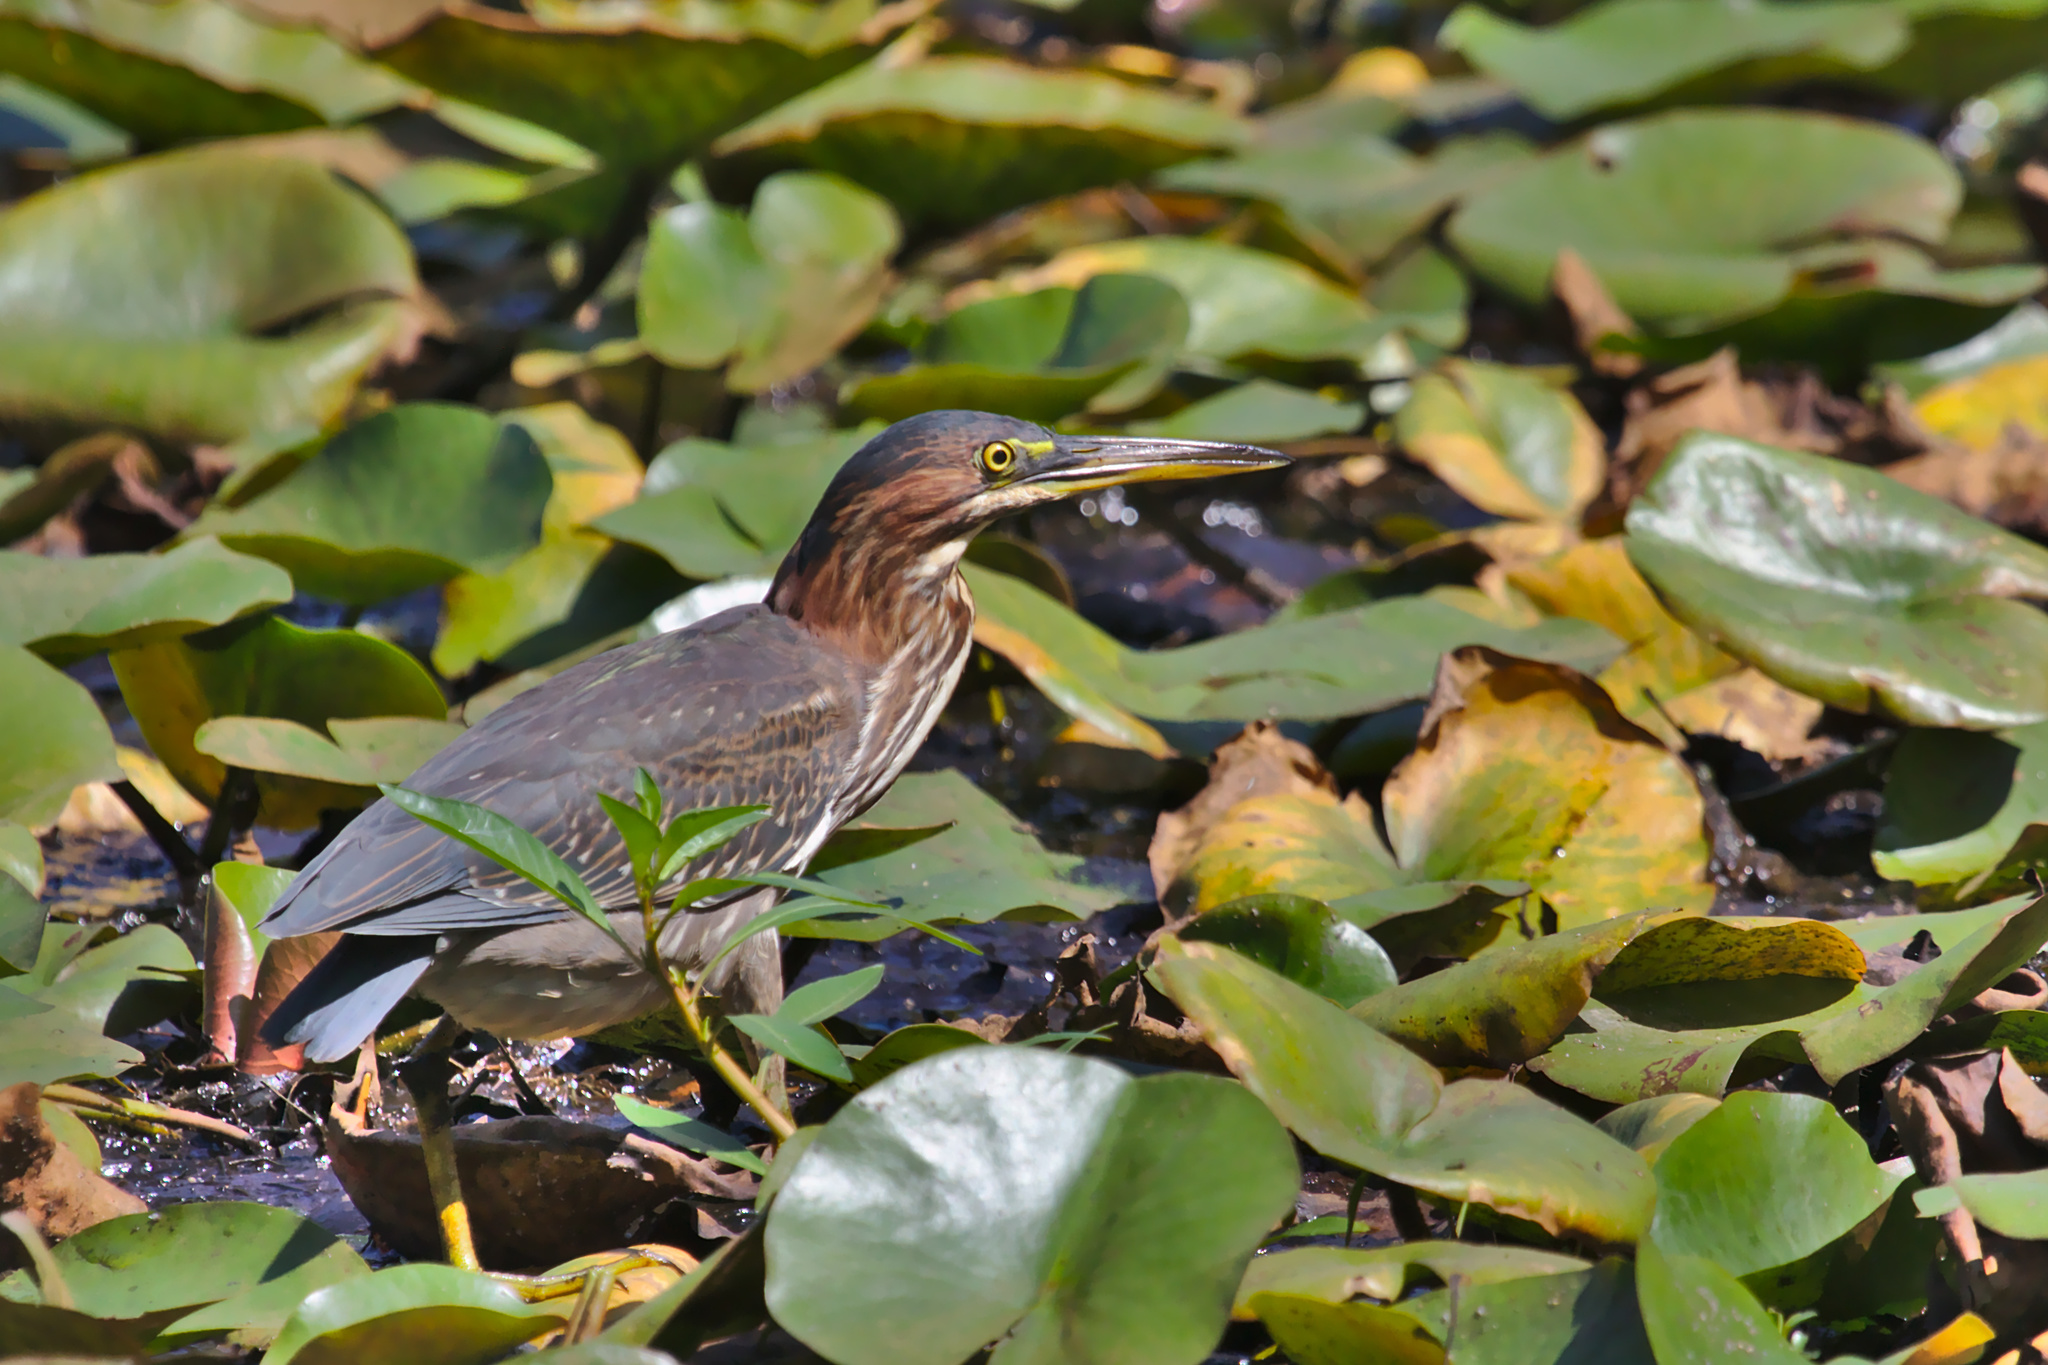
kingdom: Animalia
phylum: Chordata
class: Aves
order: Pelecaniformes
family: Ardeidae
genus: Butorides
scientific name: Butorides virescens
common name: Green heron
